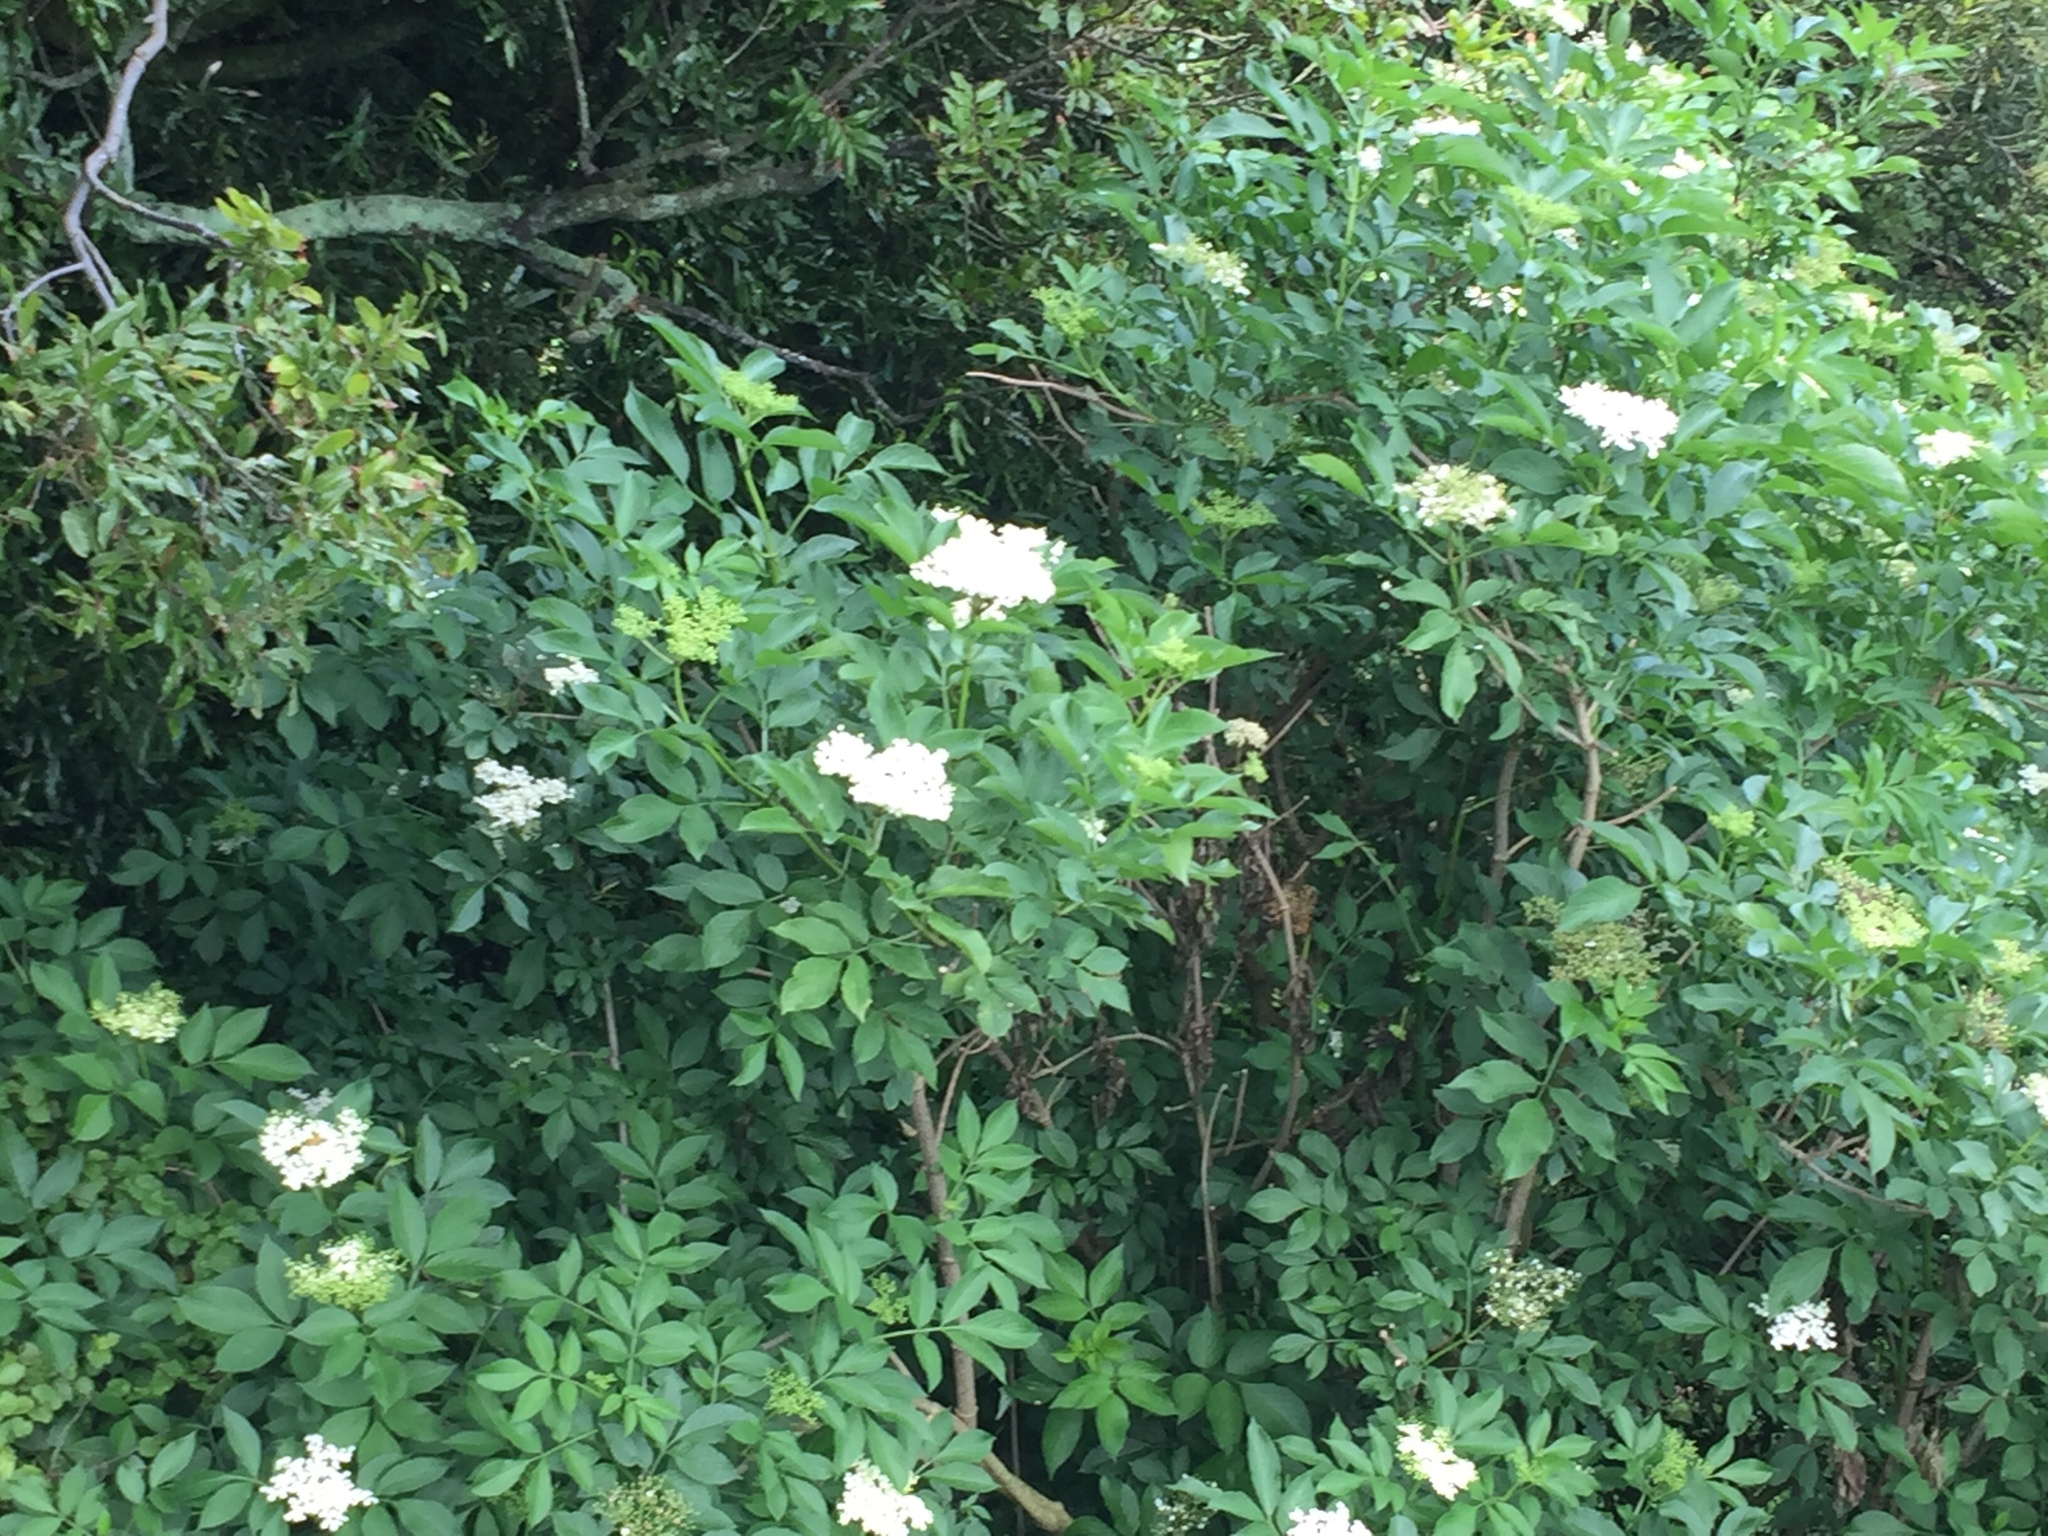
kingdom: Plantae
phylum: Tracheophyta
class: Magnoliopsida
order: Dipsacales
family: Viburnaceae
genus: Sambucus
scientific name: Sambucus nigra
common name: Elder
